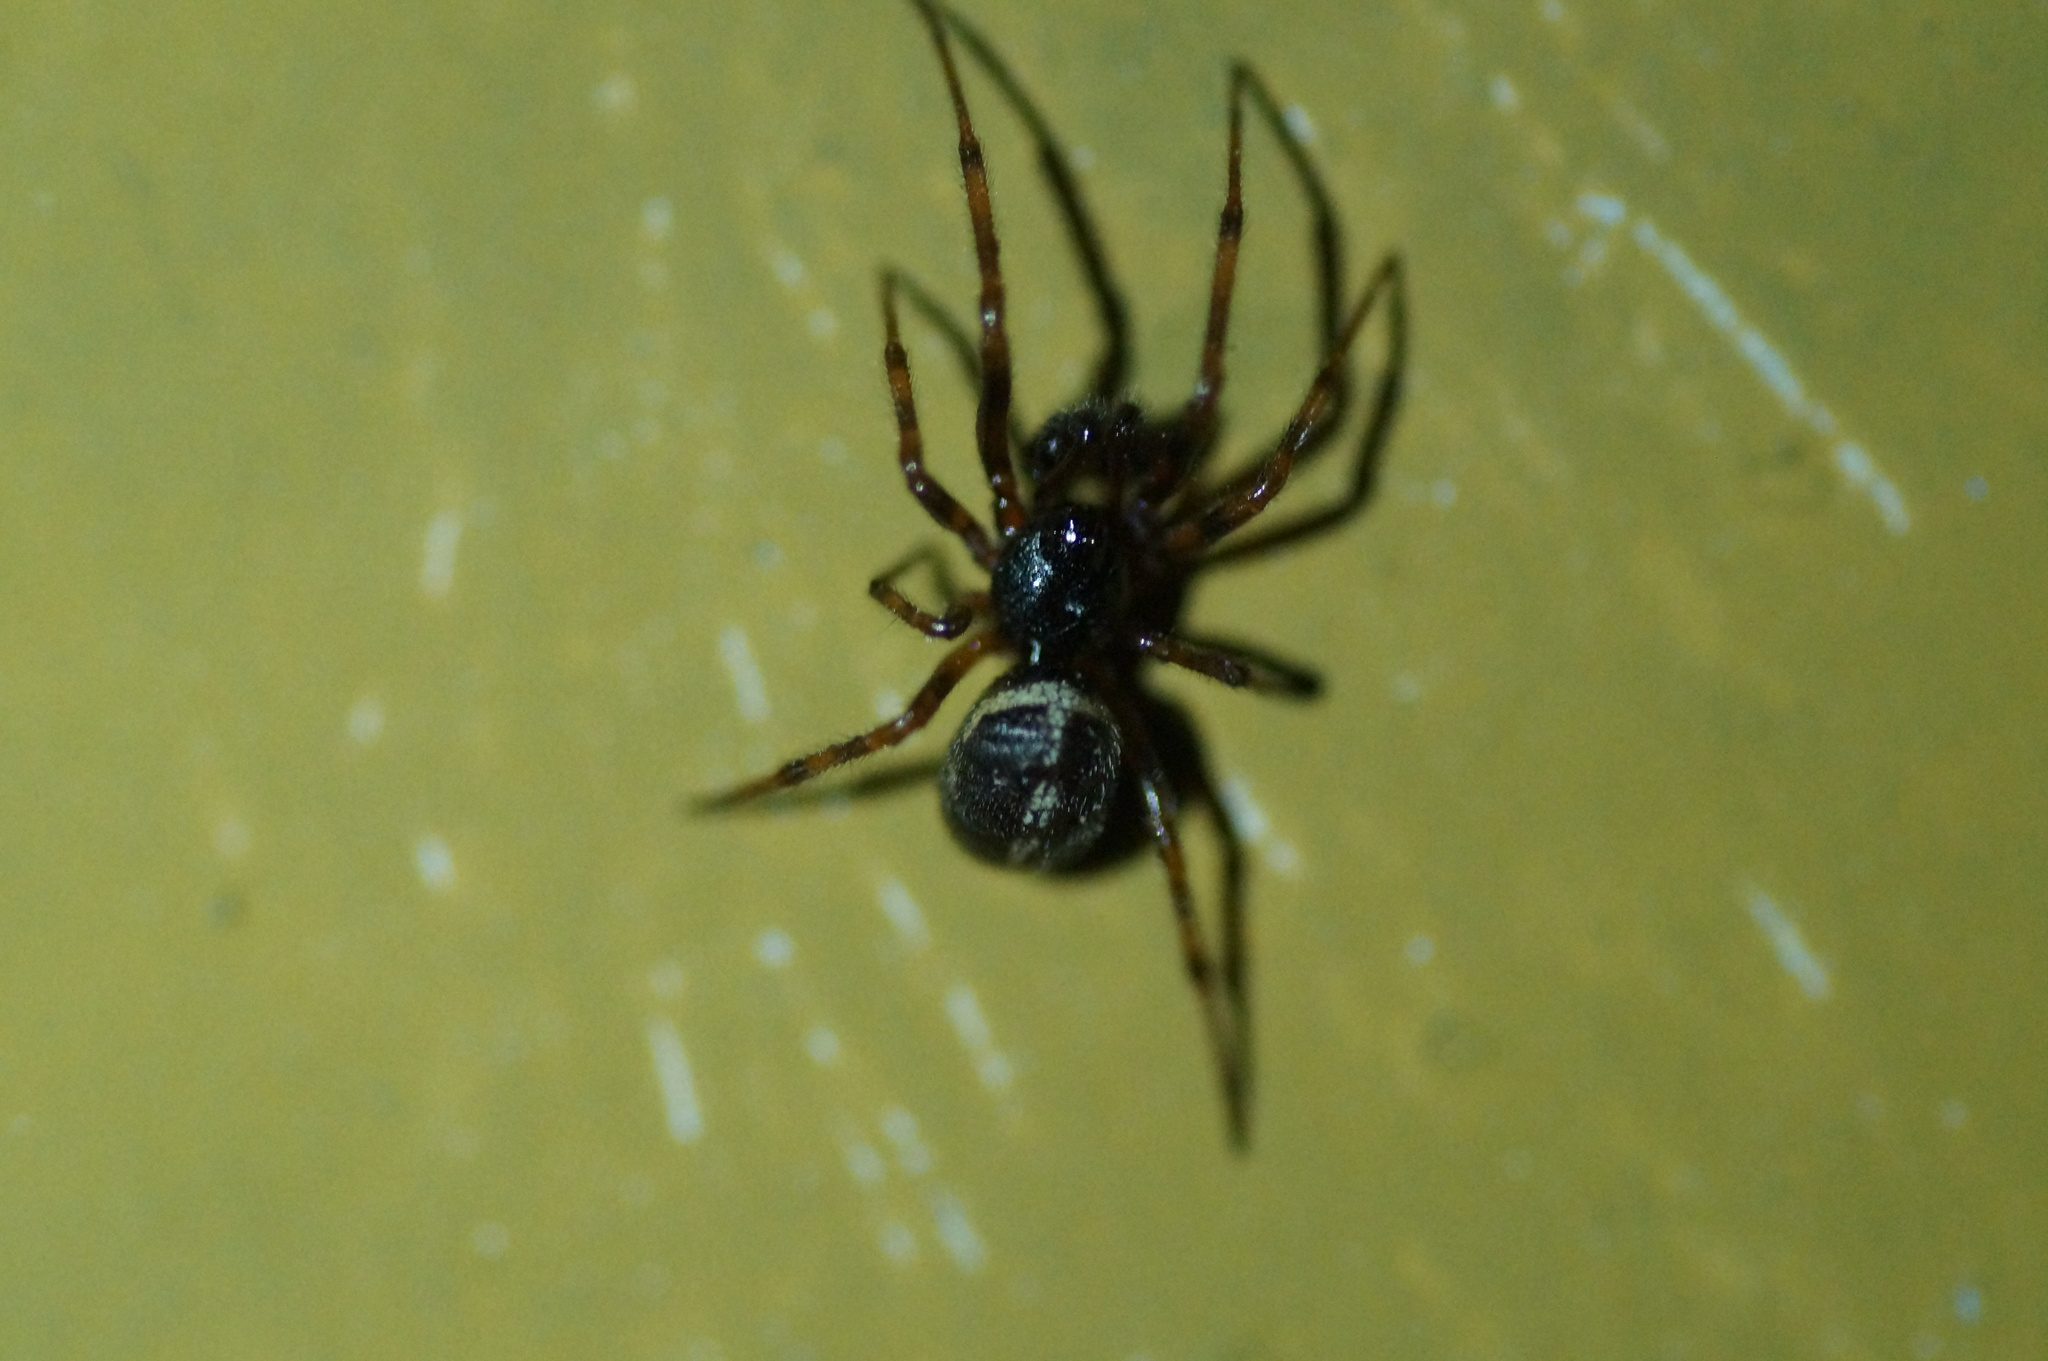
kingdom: Animalia
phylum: Arthropoda
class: Arachnida
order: Araneae
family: Theridiidae
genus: Steatoda
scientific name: Steatoda bipunctata
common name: False widow
